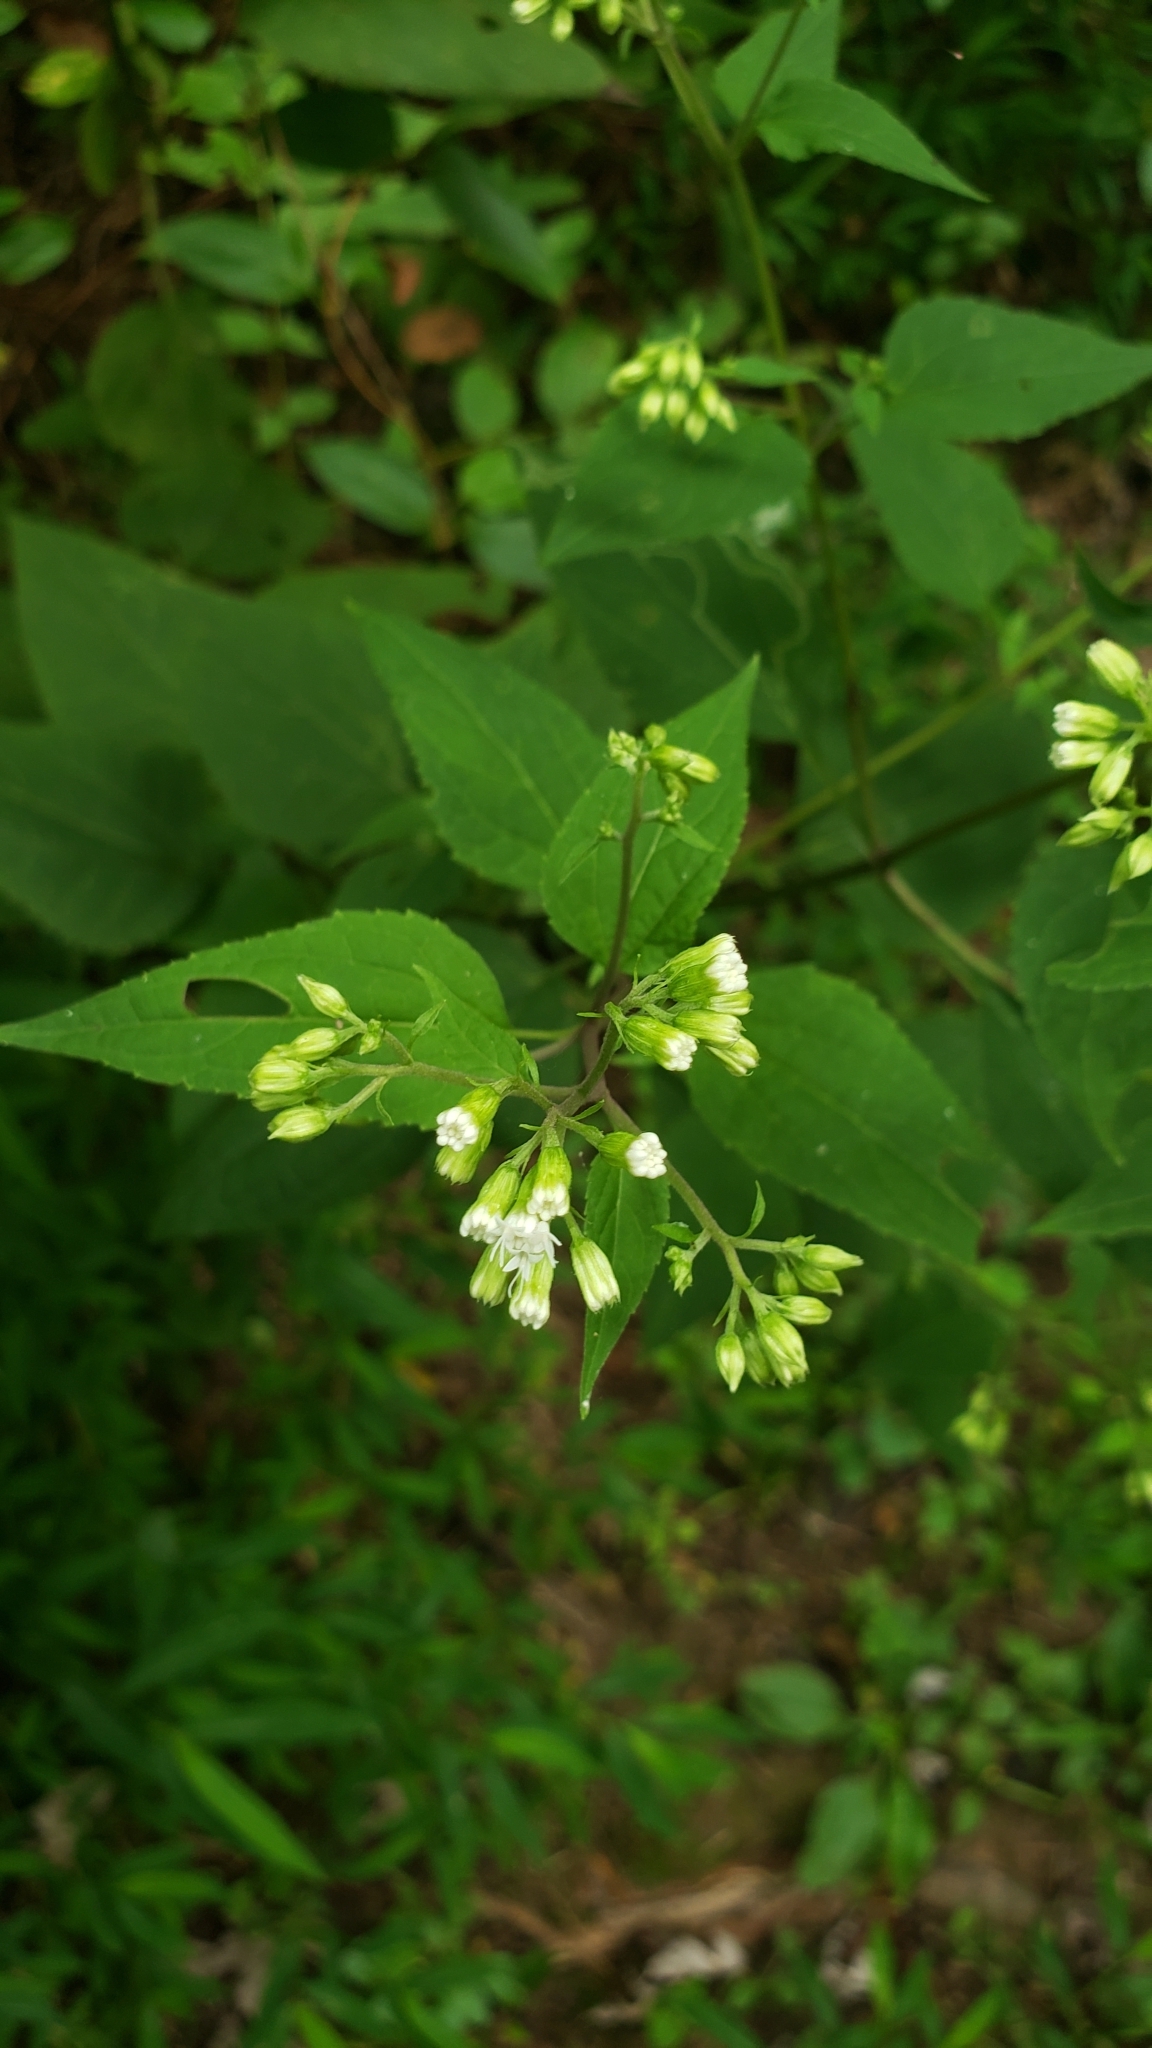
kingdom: Plantae
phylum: Tracheophyta
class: Magnoliopsida
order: Asterales
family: Asteraceae
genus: Ageratina
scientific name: Ageratina altissima
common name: White snakeroot
